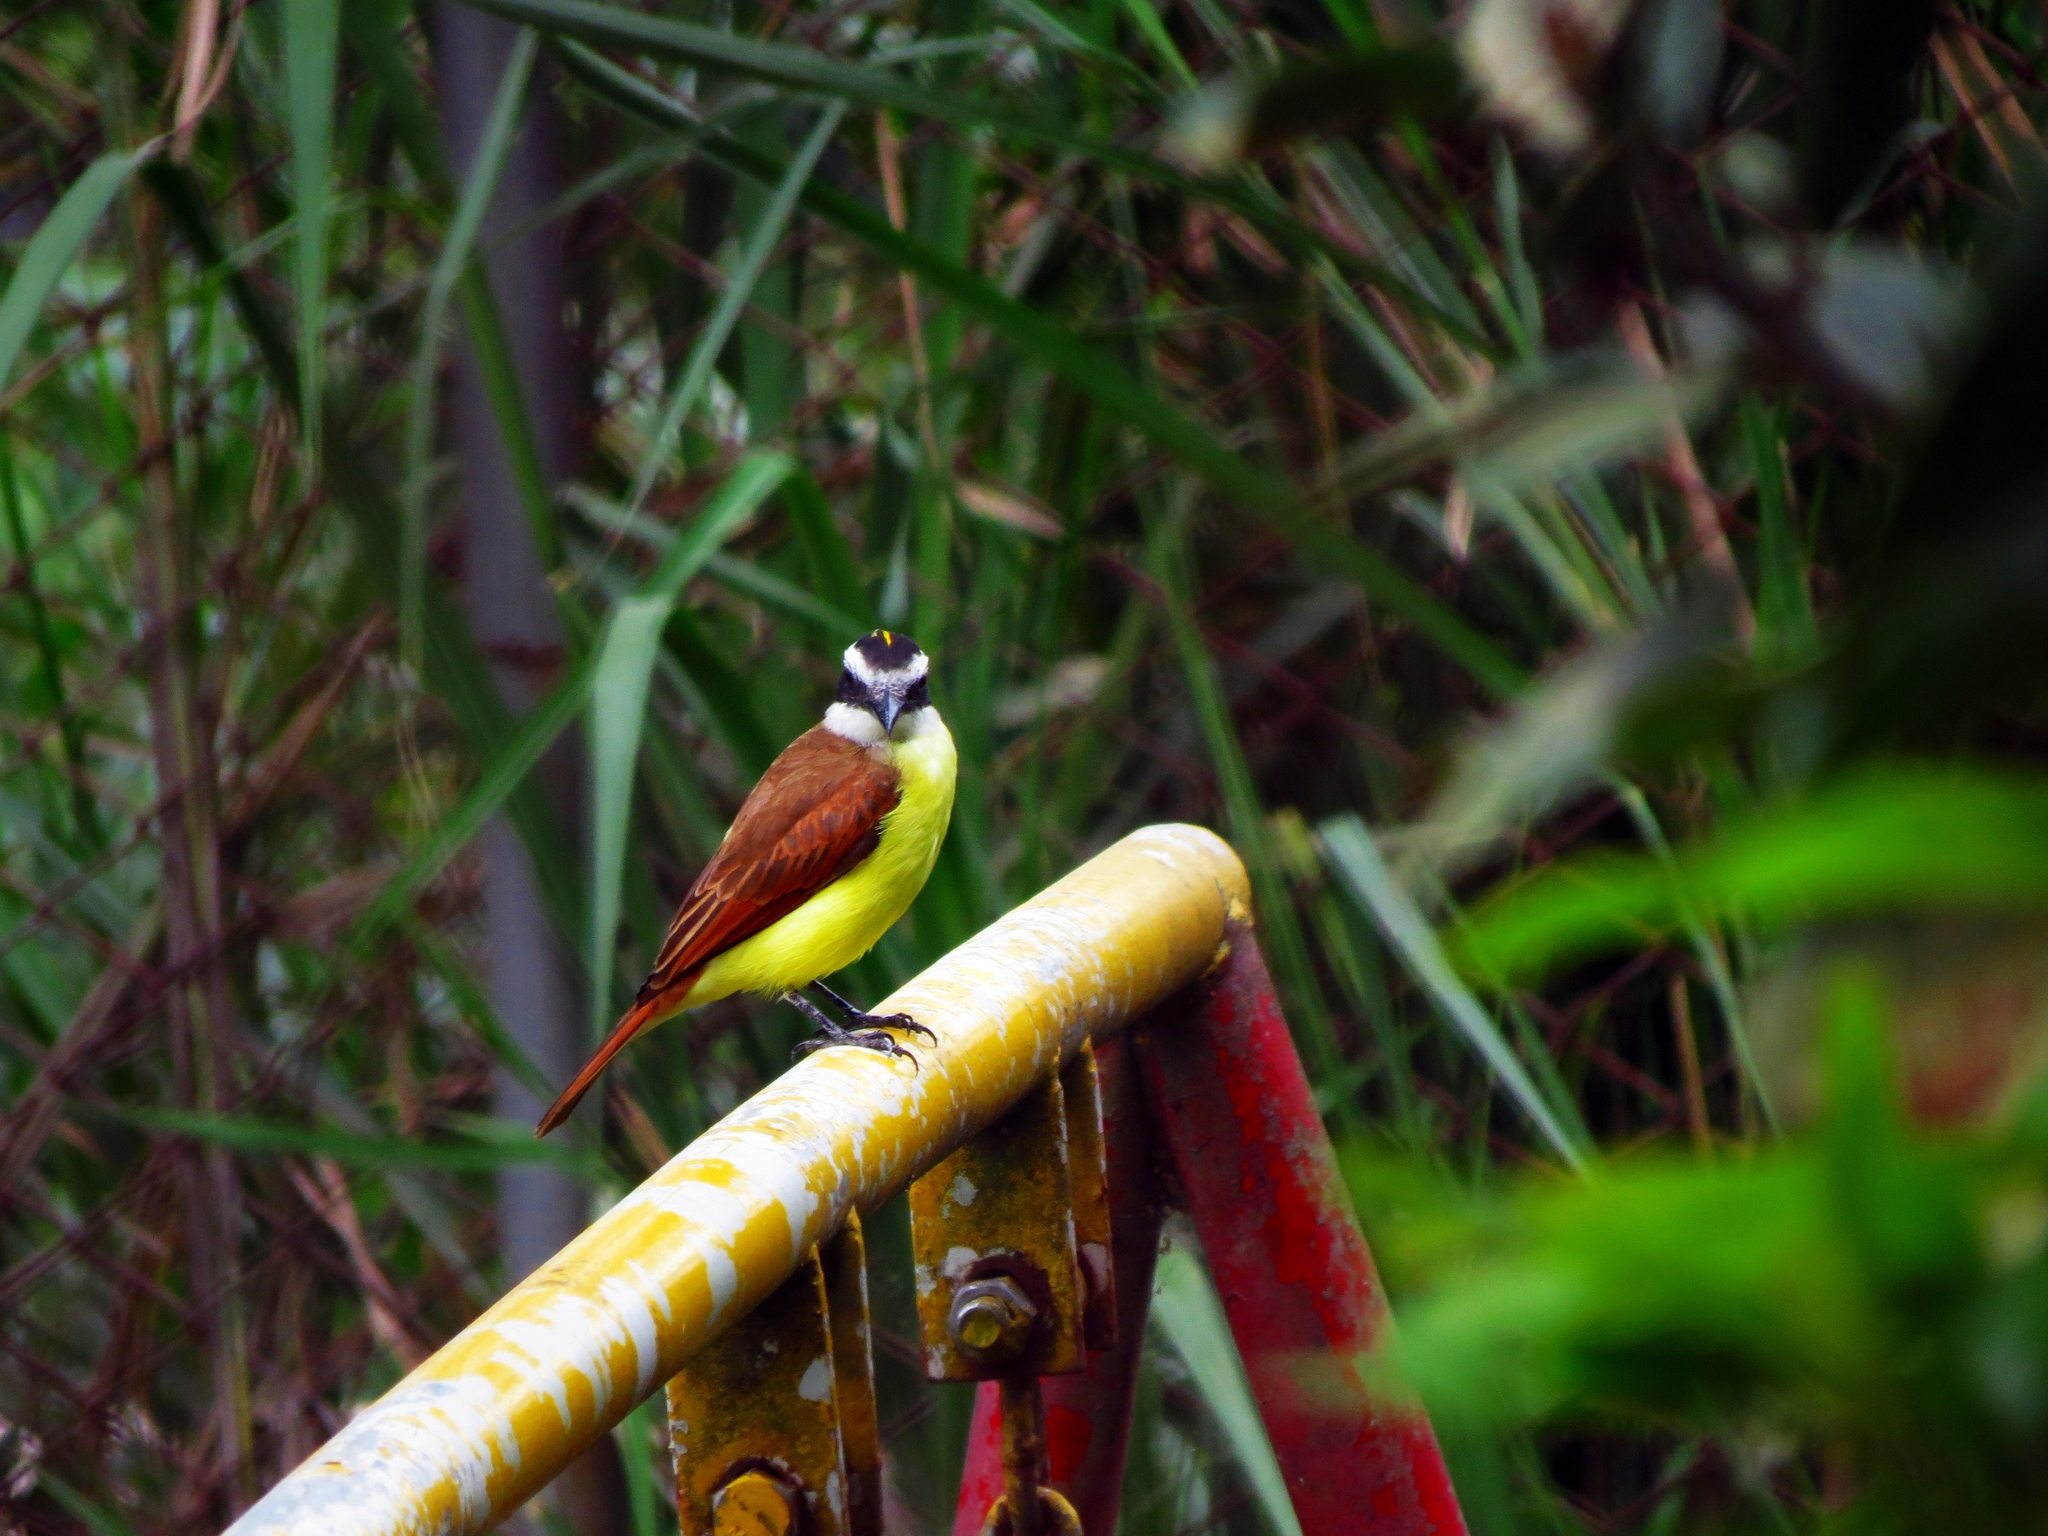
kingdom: Animalia
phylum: Chordata
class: Aves
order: Passeriformes
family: Tyrannidae
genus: Pitangus
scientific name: Pitangus sulphuratus
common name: Great kiskadee
